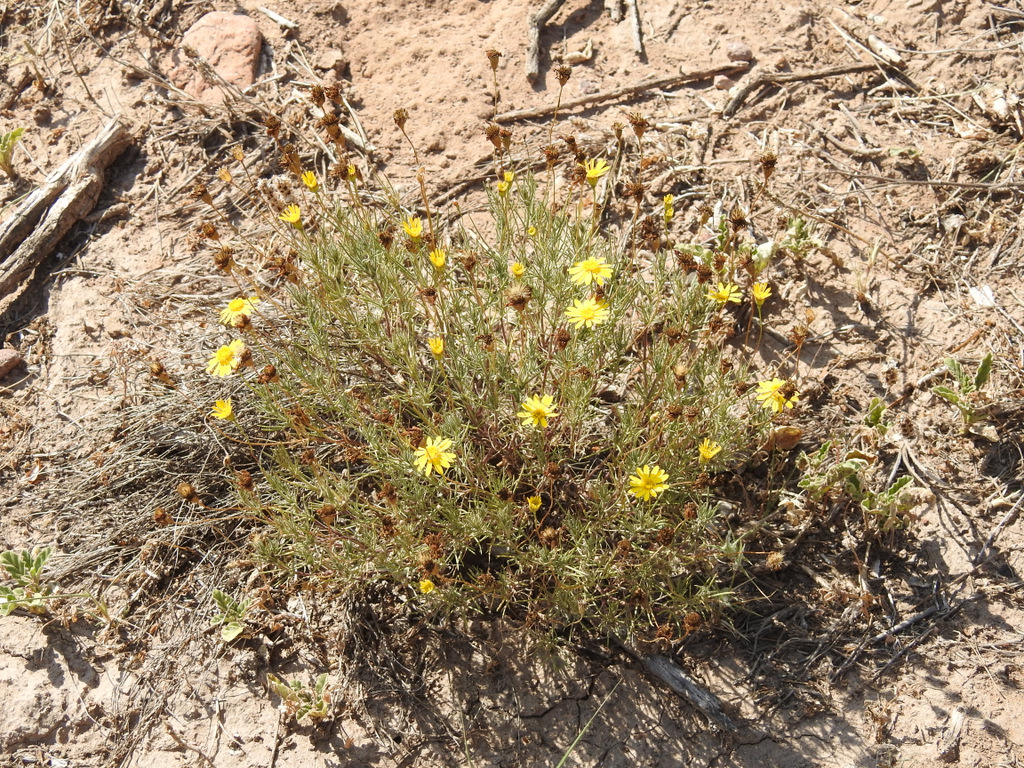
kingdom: Plantae
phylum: Tracheophyta
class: Magnoliopsida
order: Asterales
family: Asteraceae
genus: Thymophylla
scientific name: Thymophylla pentachaeta
